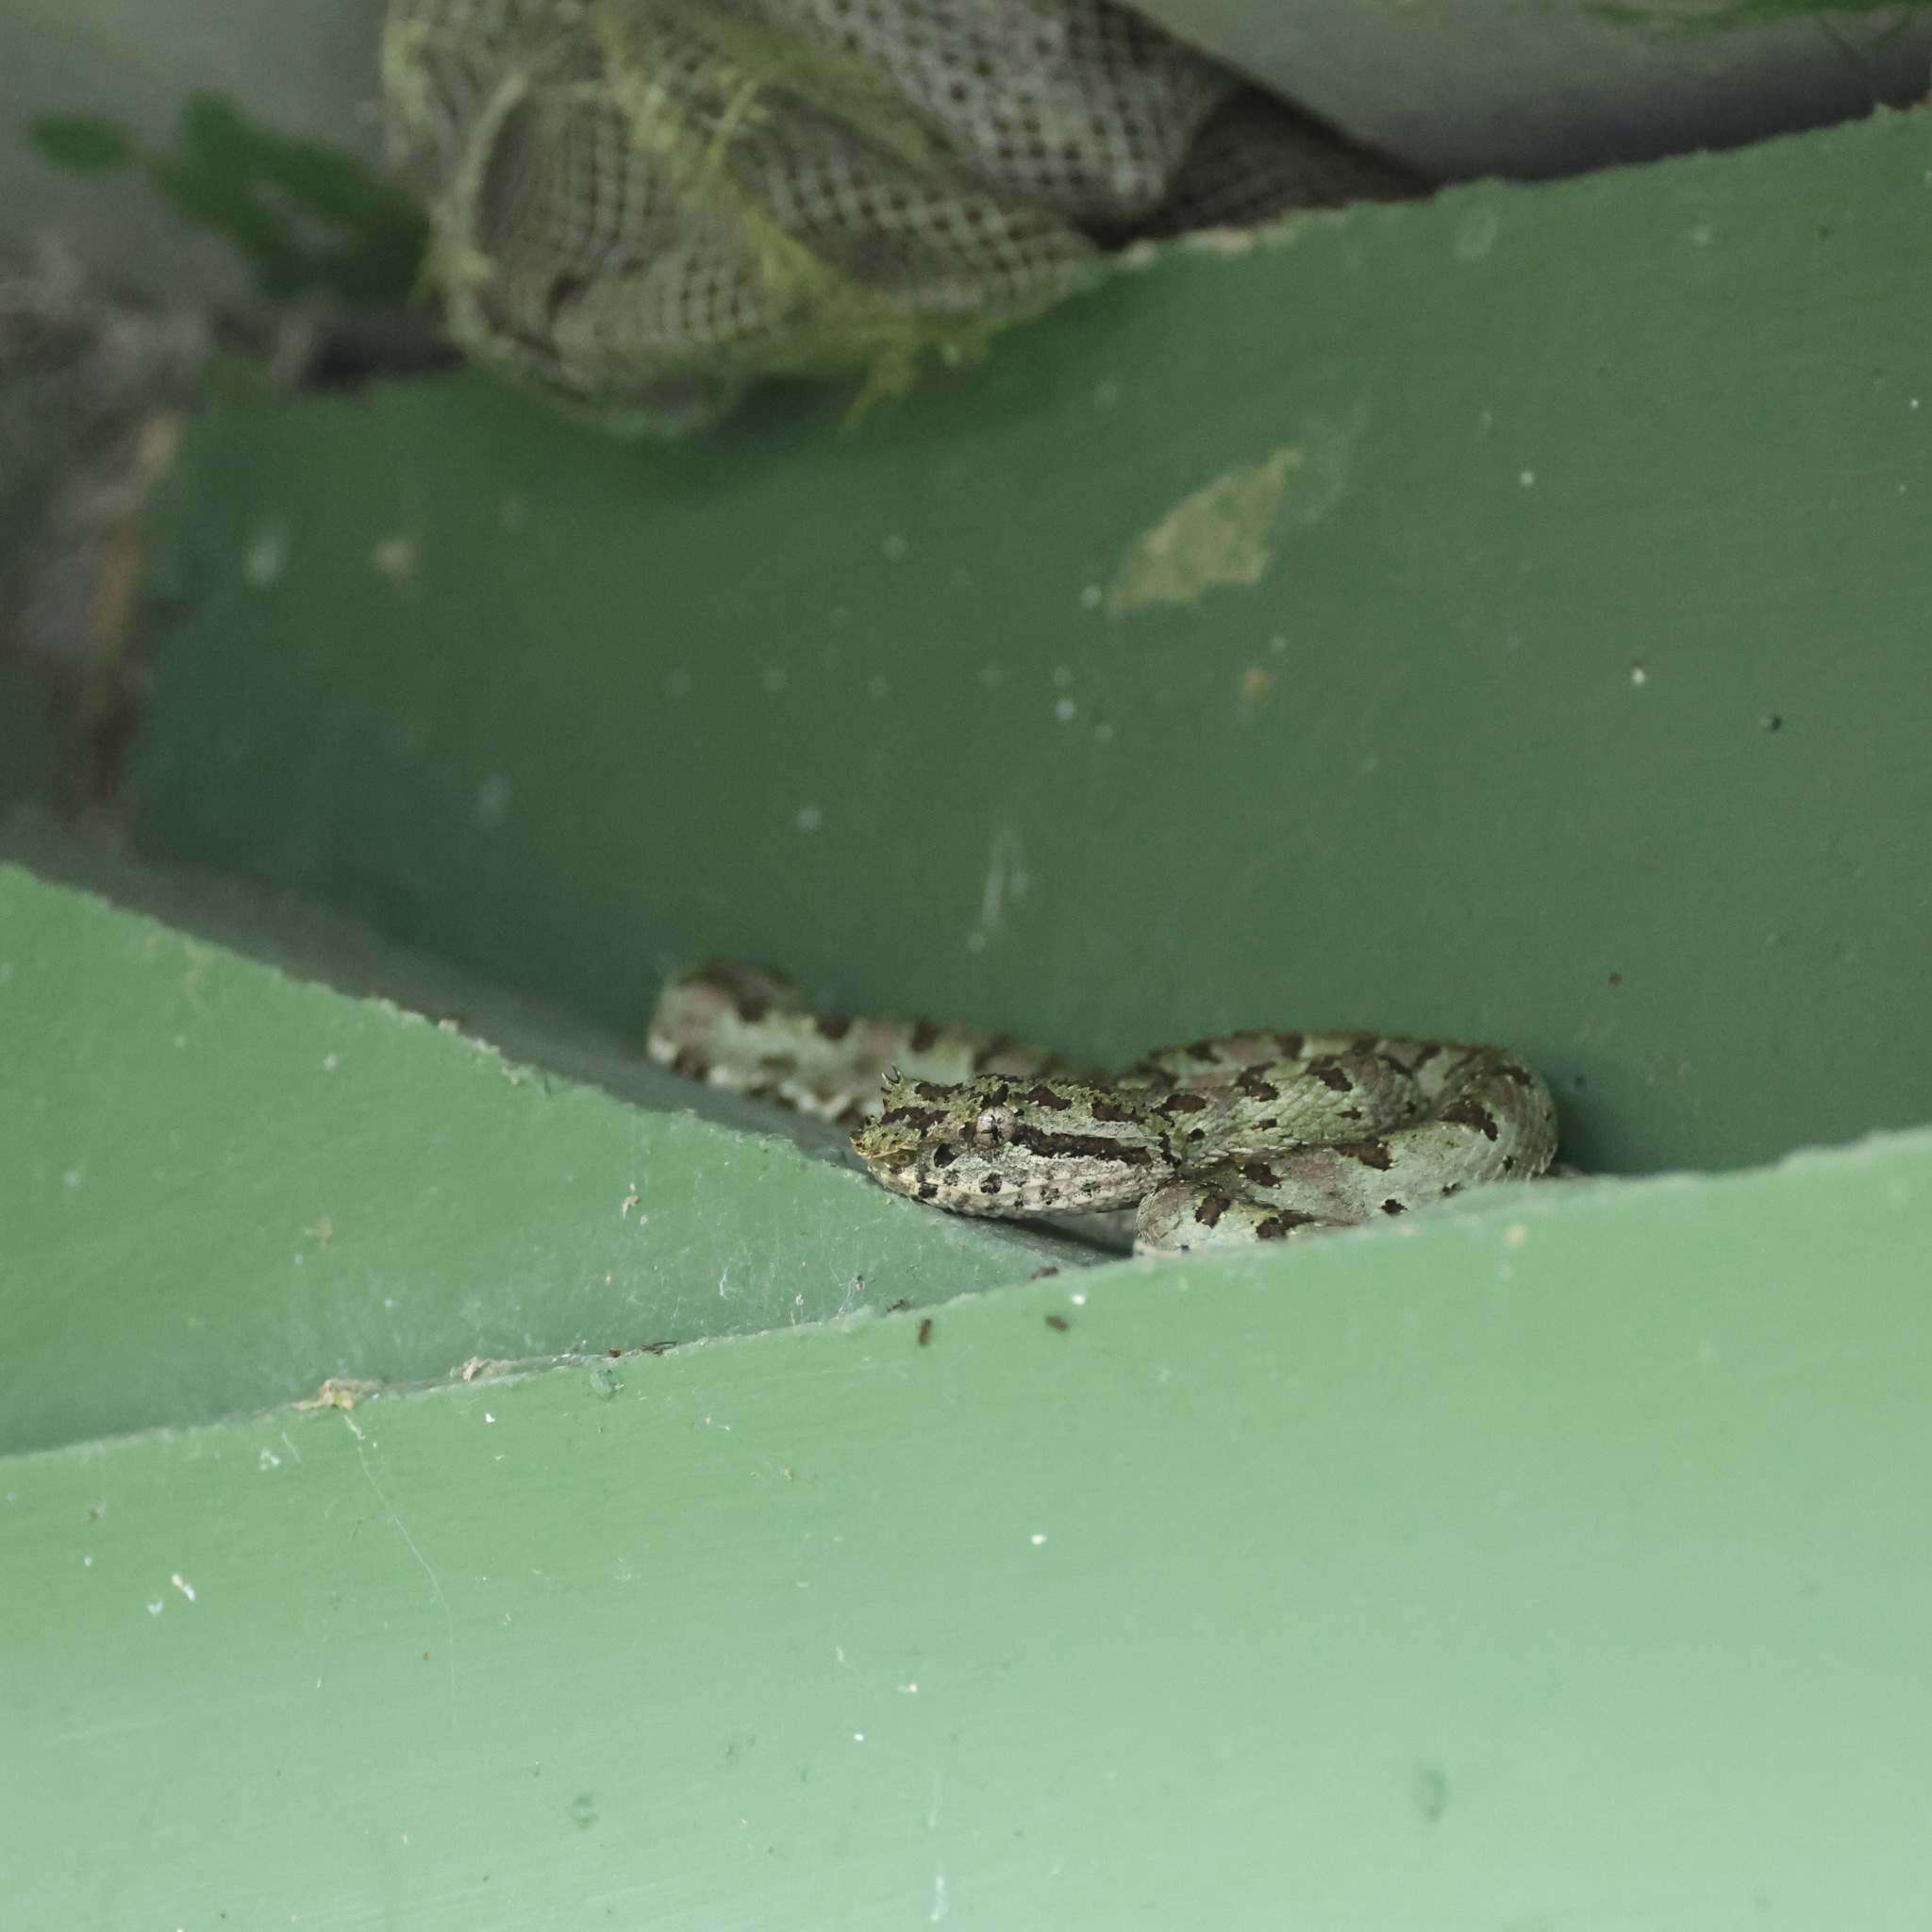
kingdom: Animalia
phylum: Chordata
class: Squamata
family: Viperidae
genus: Bothriechis
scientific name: Bothriechis schlegelii
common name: Eyelash viper
